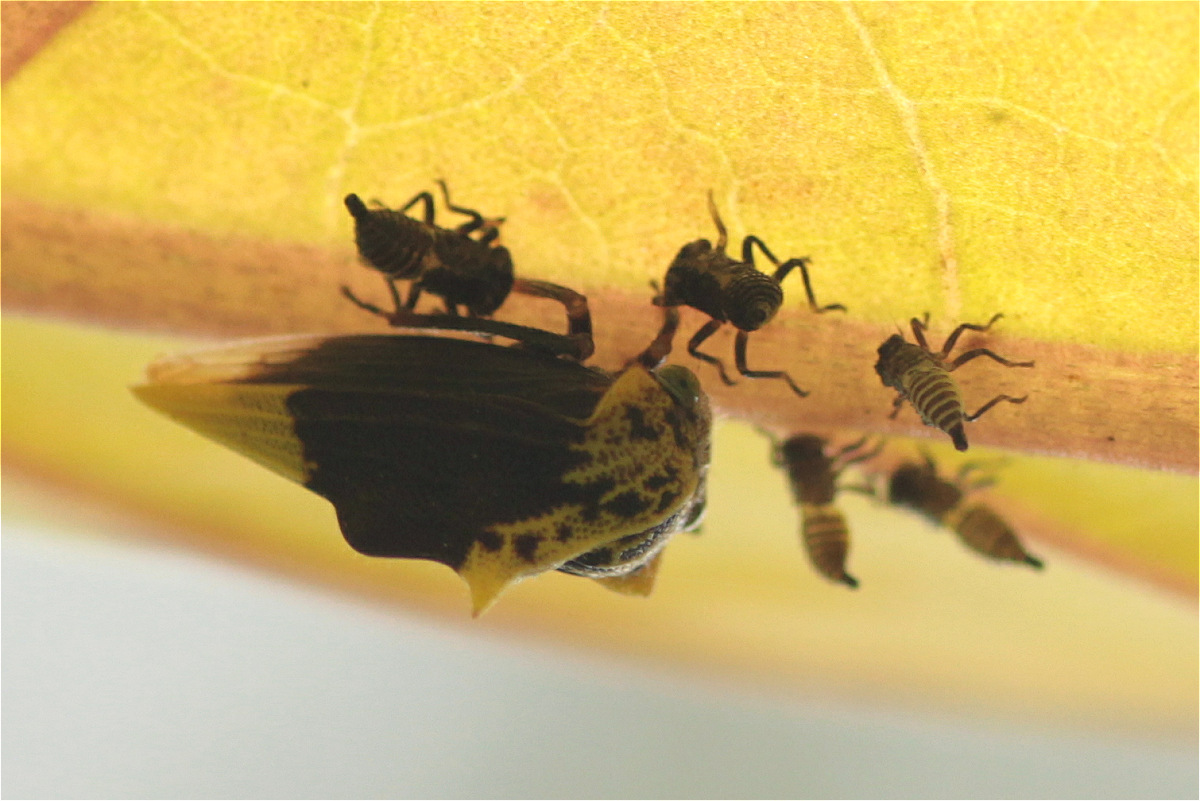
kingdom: Animalia
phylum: Arthropoda
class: Insecta
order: Hemiptera
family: Membracidae
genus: Ennya
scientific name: Ennya chrysura
